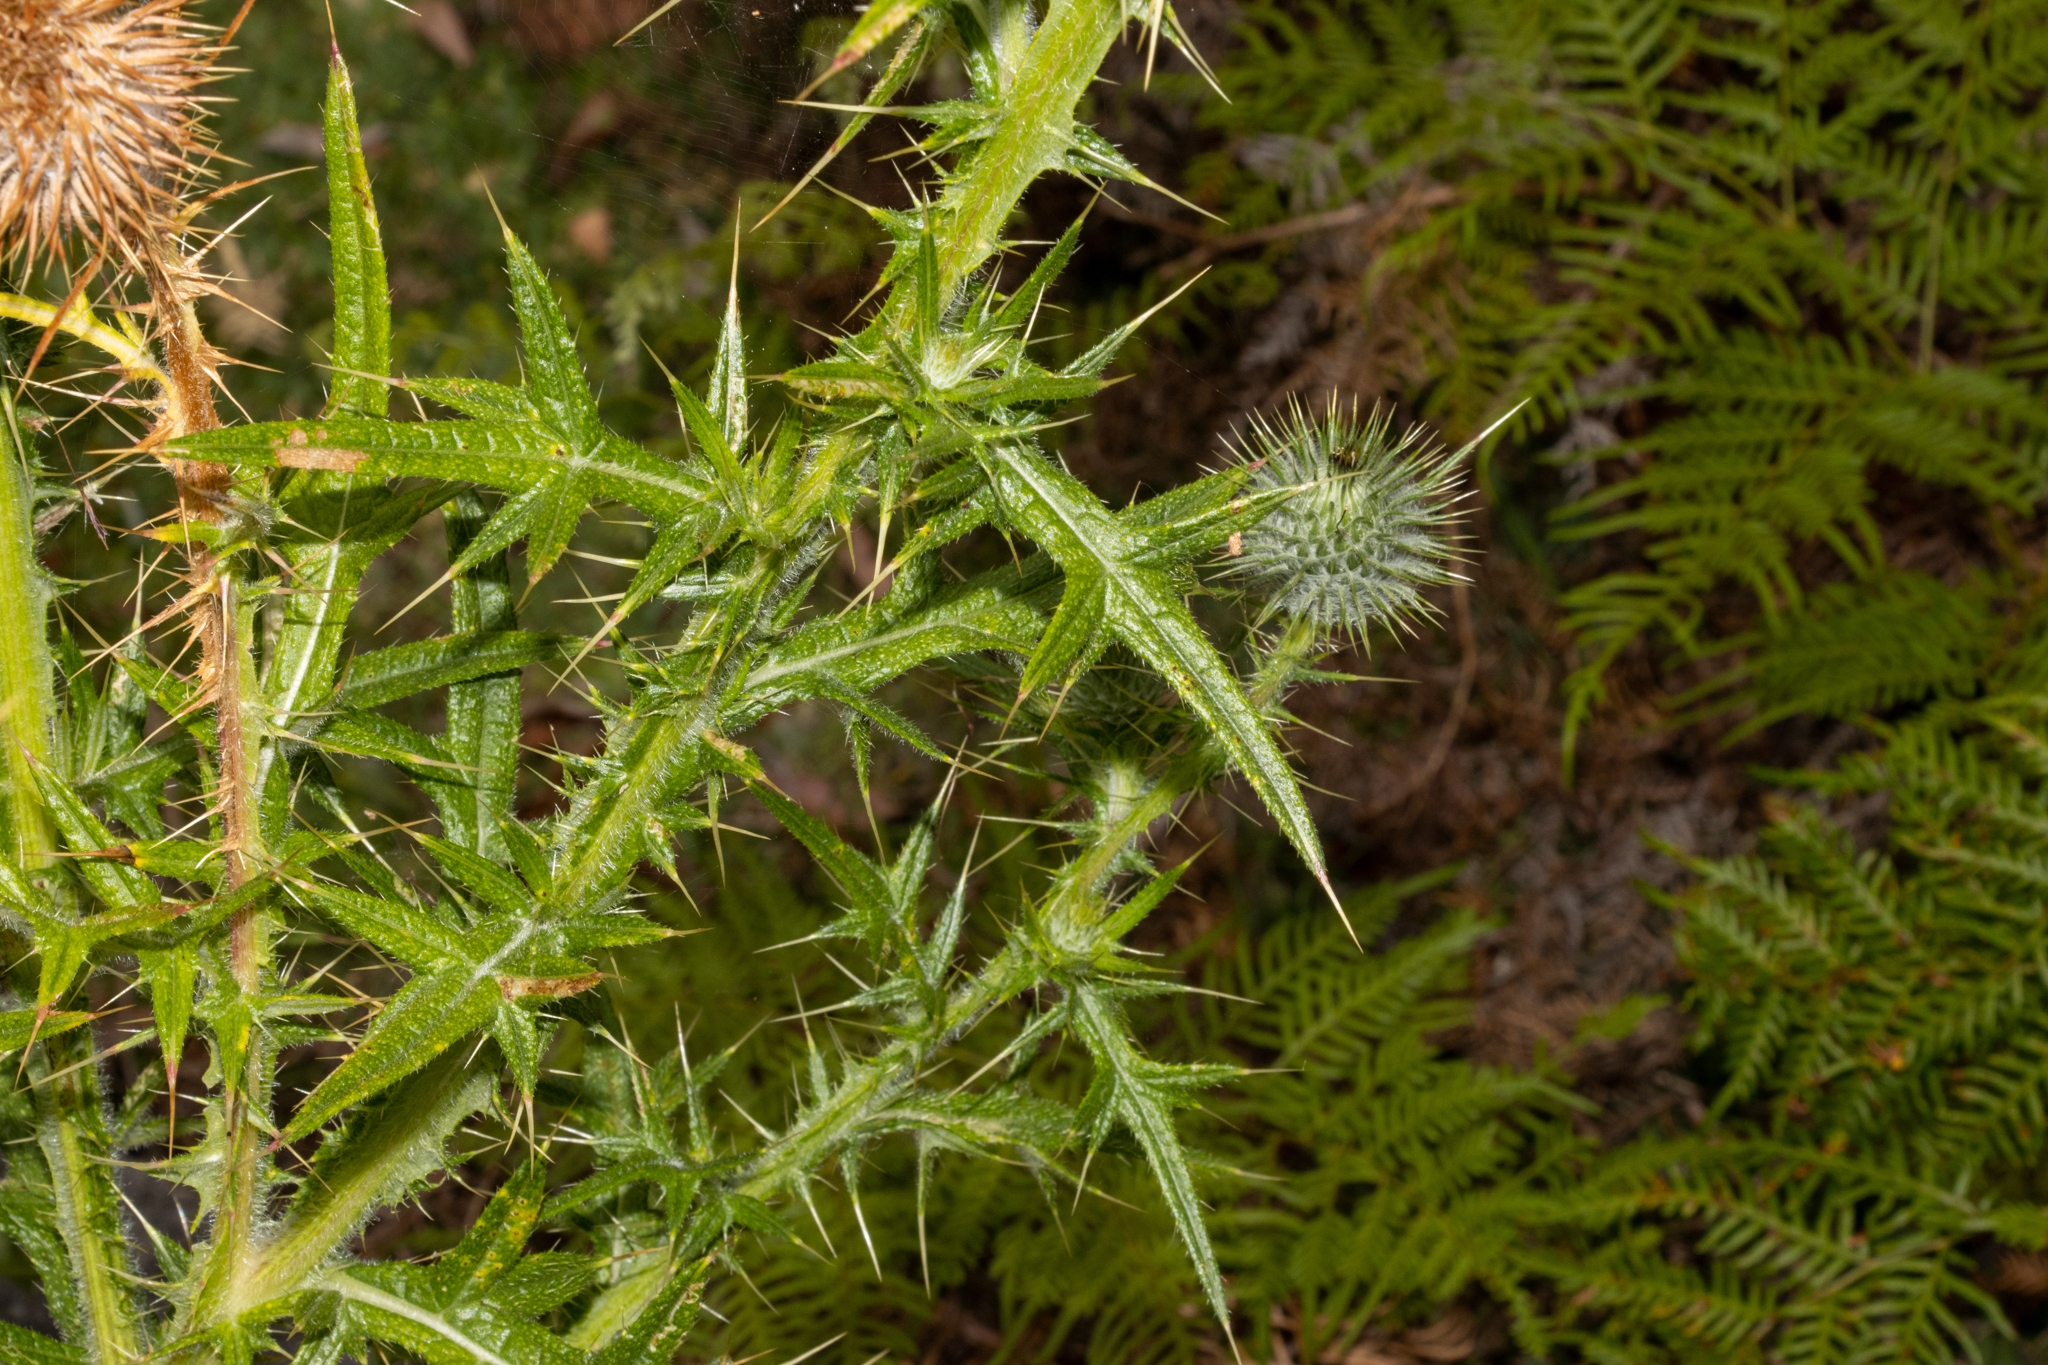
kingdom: Plantae
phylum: Tracheophyta
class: Magnoliopsida
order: Asterales
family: Asteraceae
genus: Cirsium
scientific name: Cirsium vulgare
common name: Bull thistle
